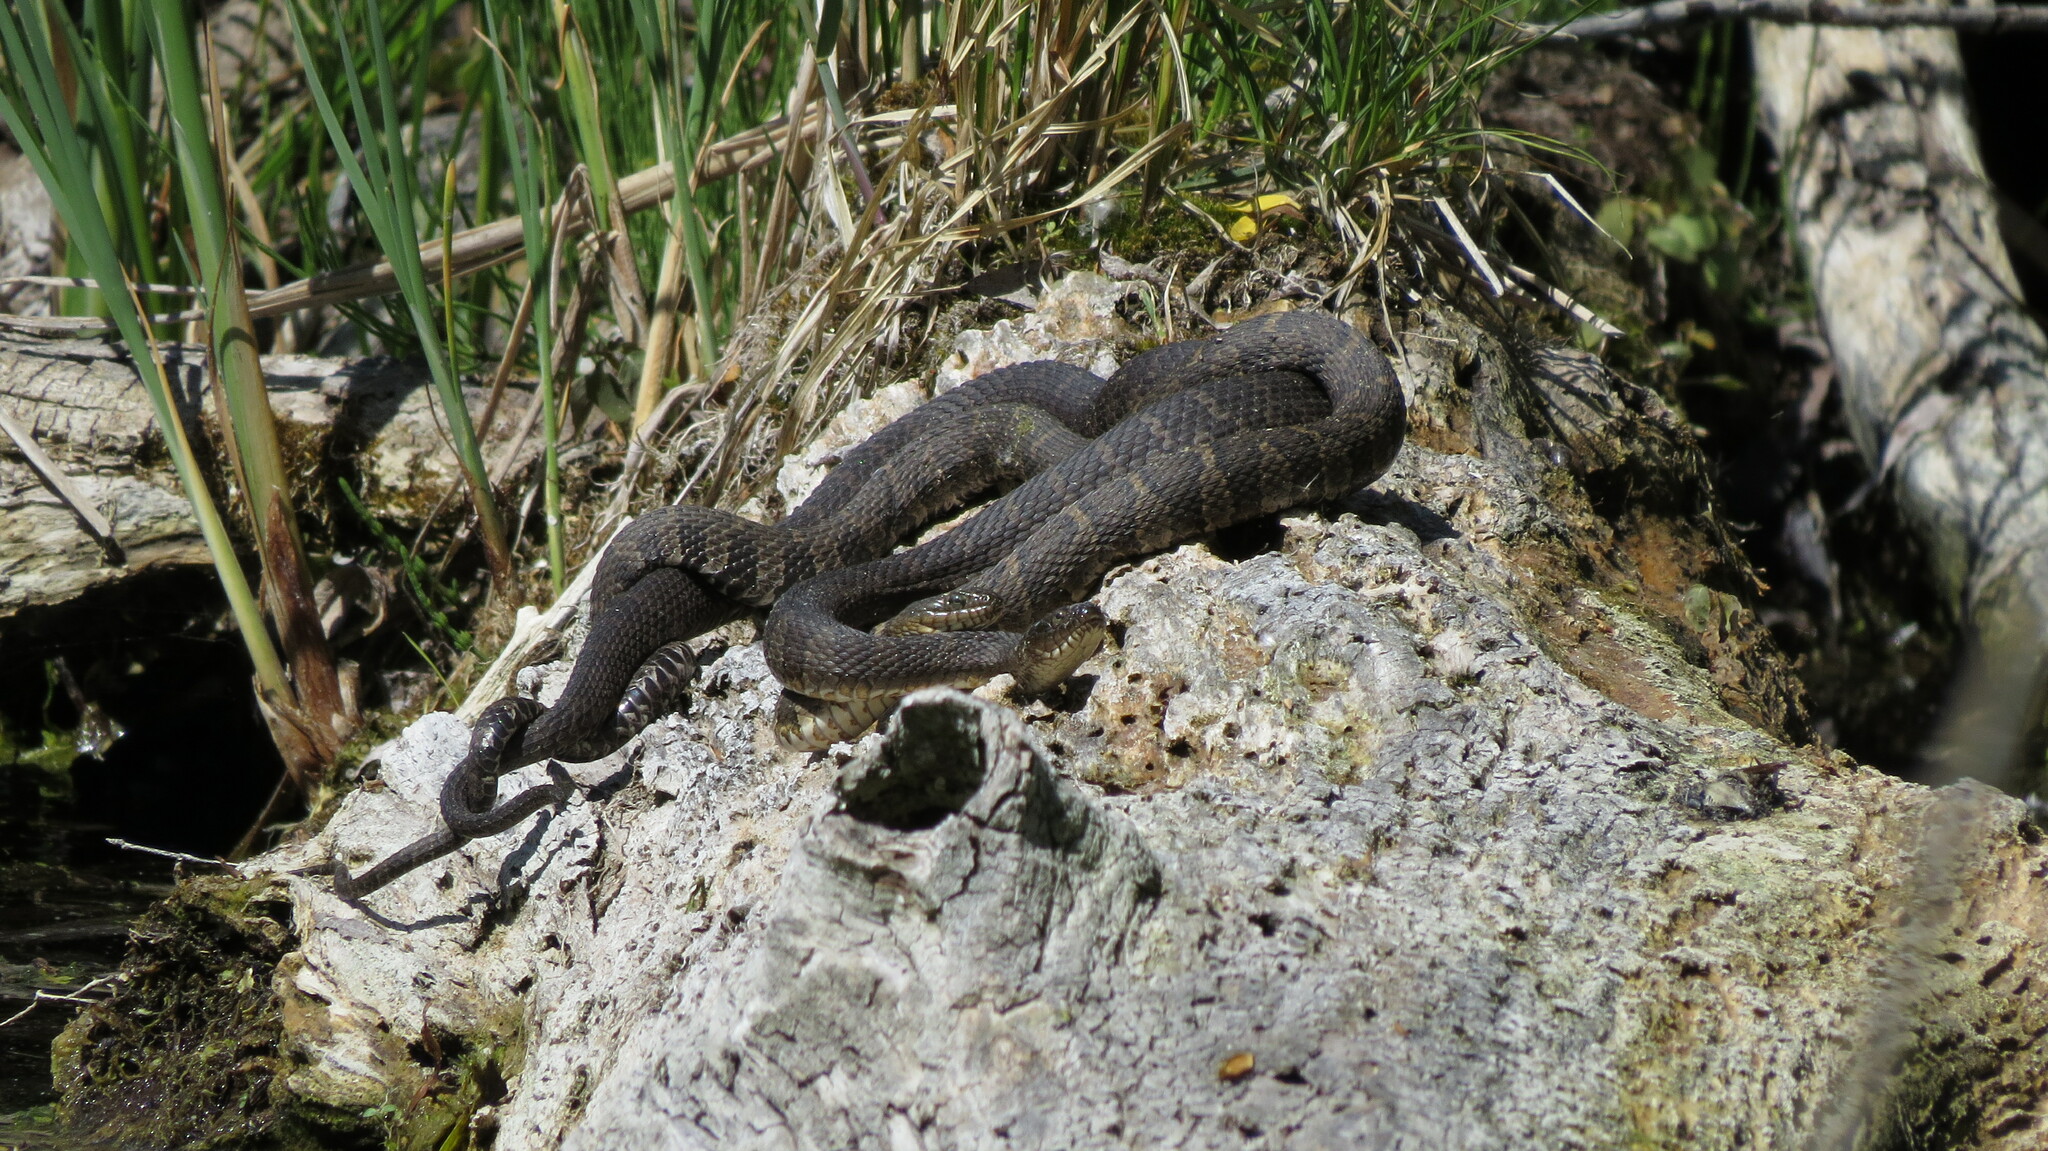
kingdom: Animalia
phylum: Chordata
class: Squamata
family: Colubridae
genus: Nerodia
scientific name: Nerodia sipedon
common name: Northern water snake
